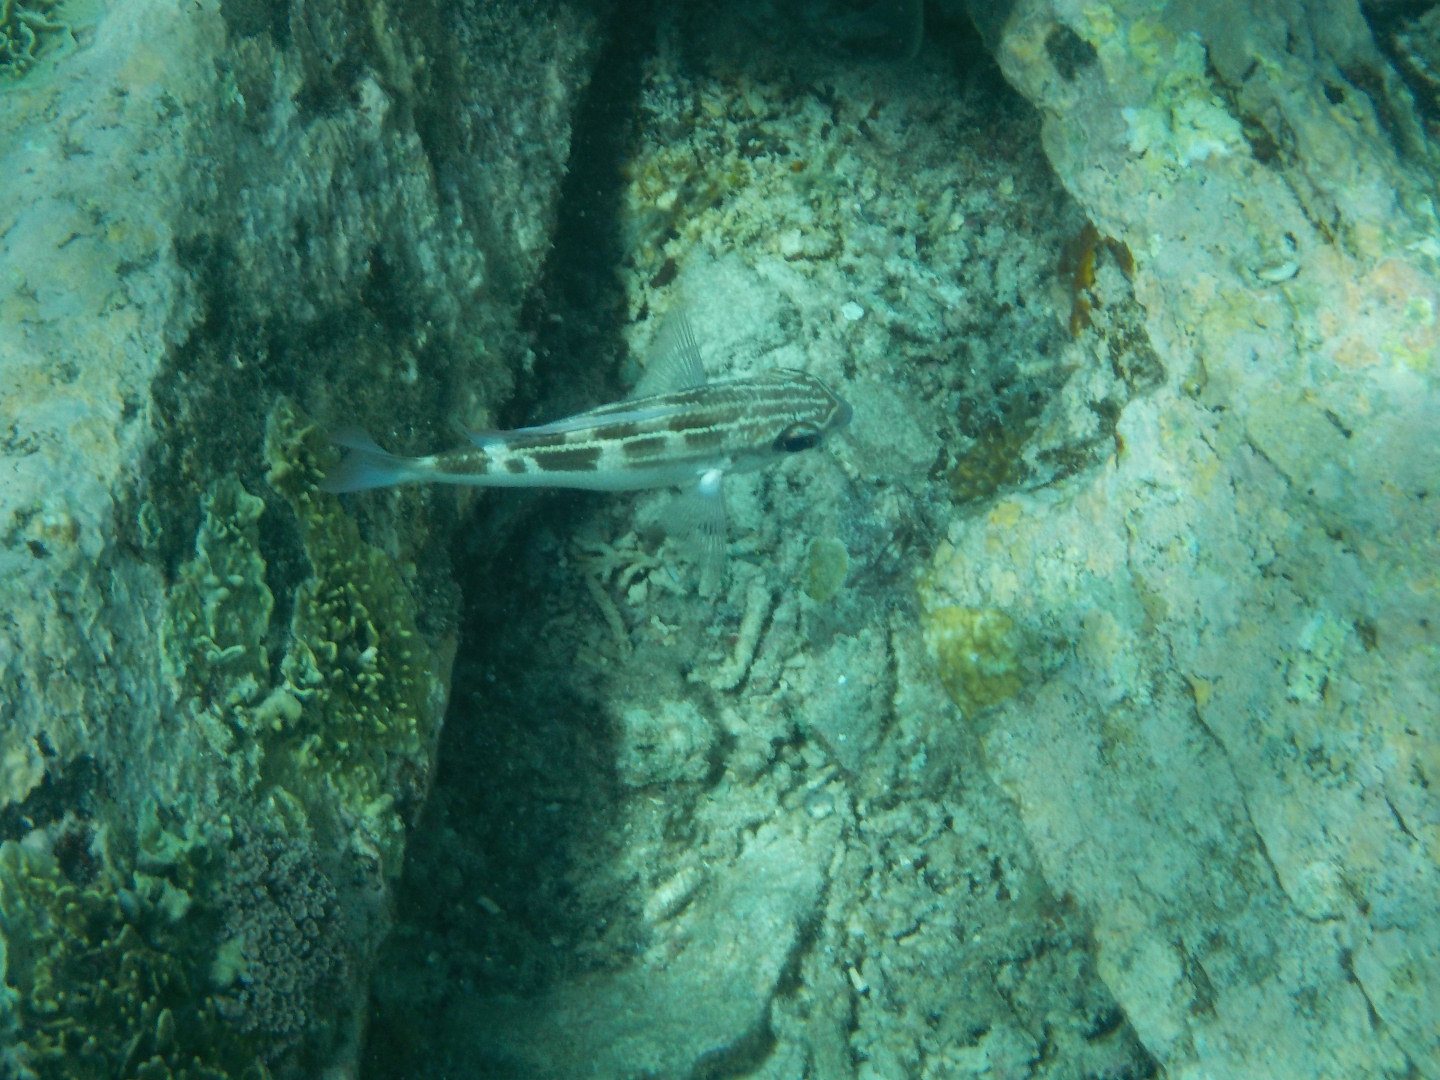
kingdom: Animalia
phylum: Chordata
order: Perciformes
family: Nemipteridae
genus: Scolopsis
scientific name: Scolopsis lineata
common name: Striped monocle bream
